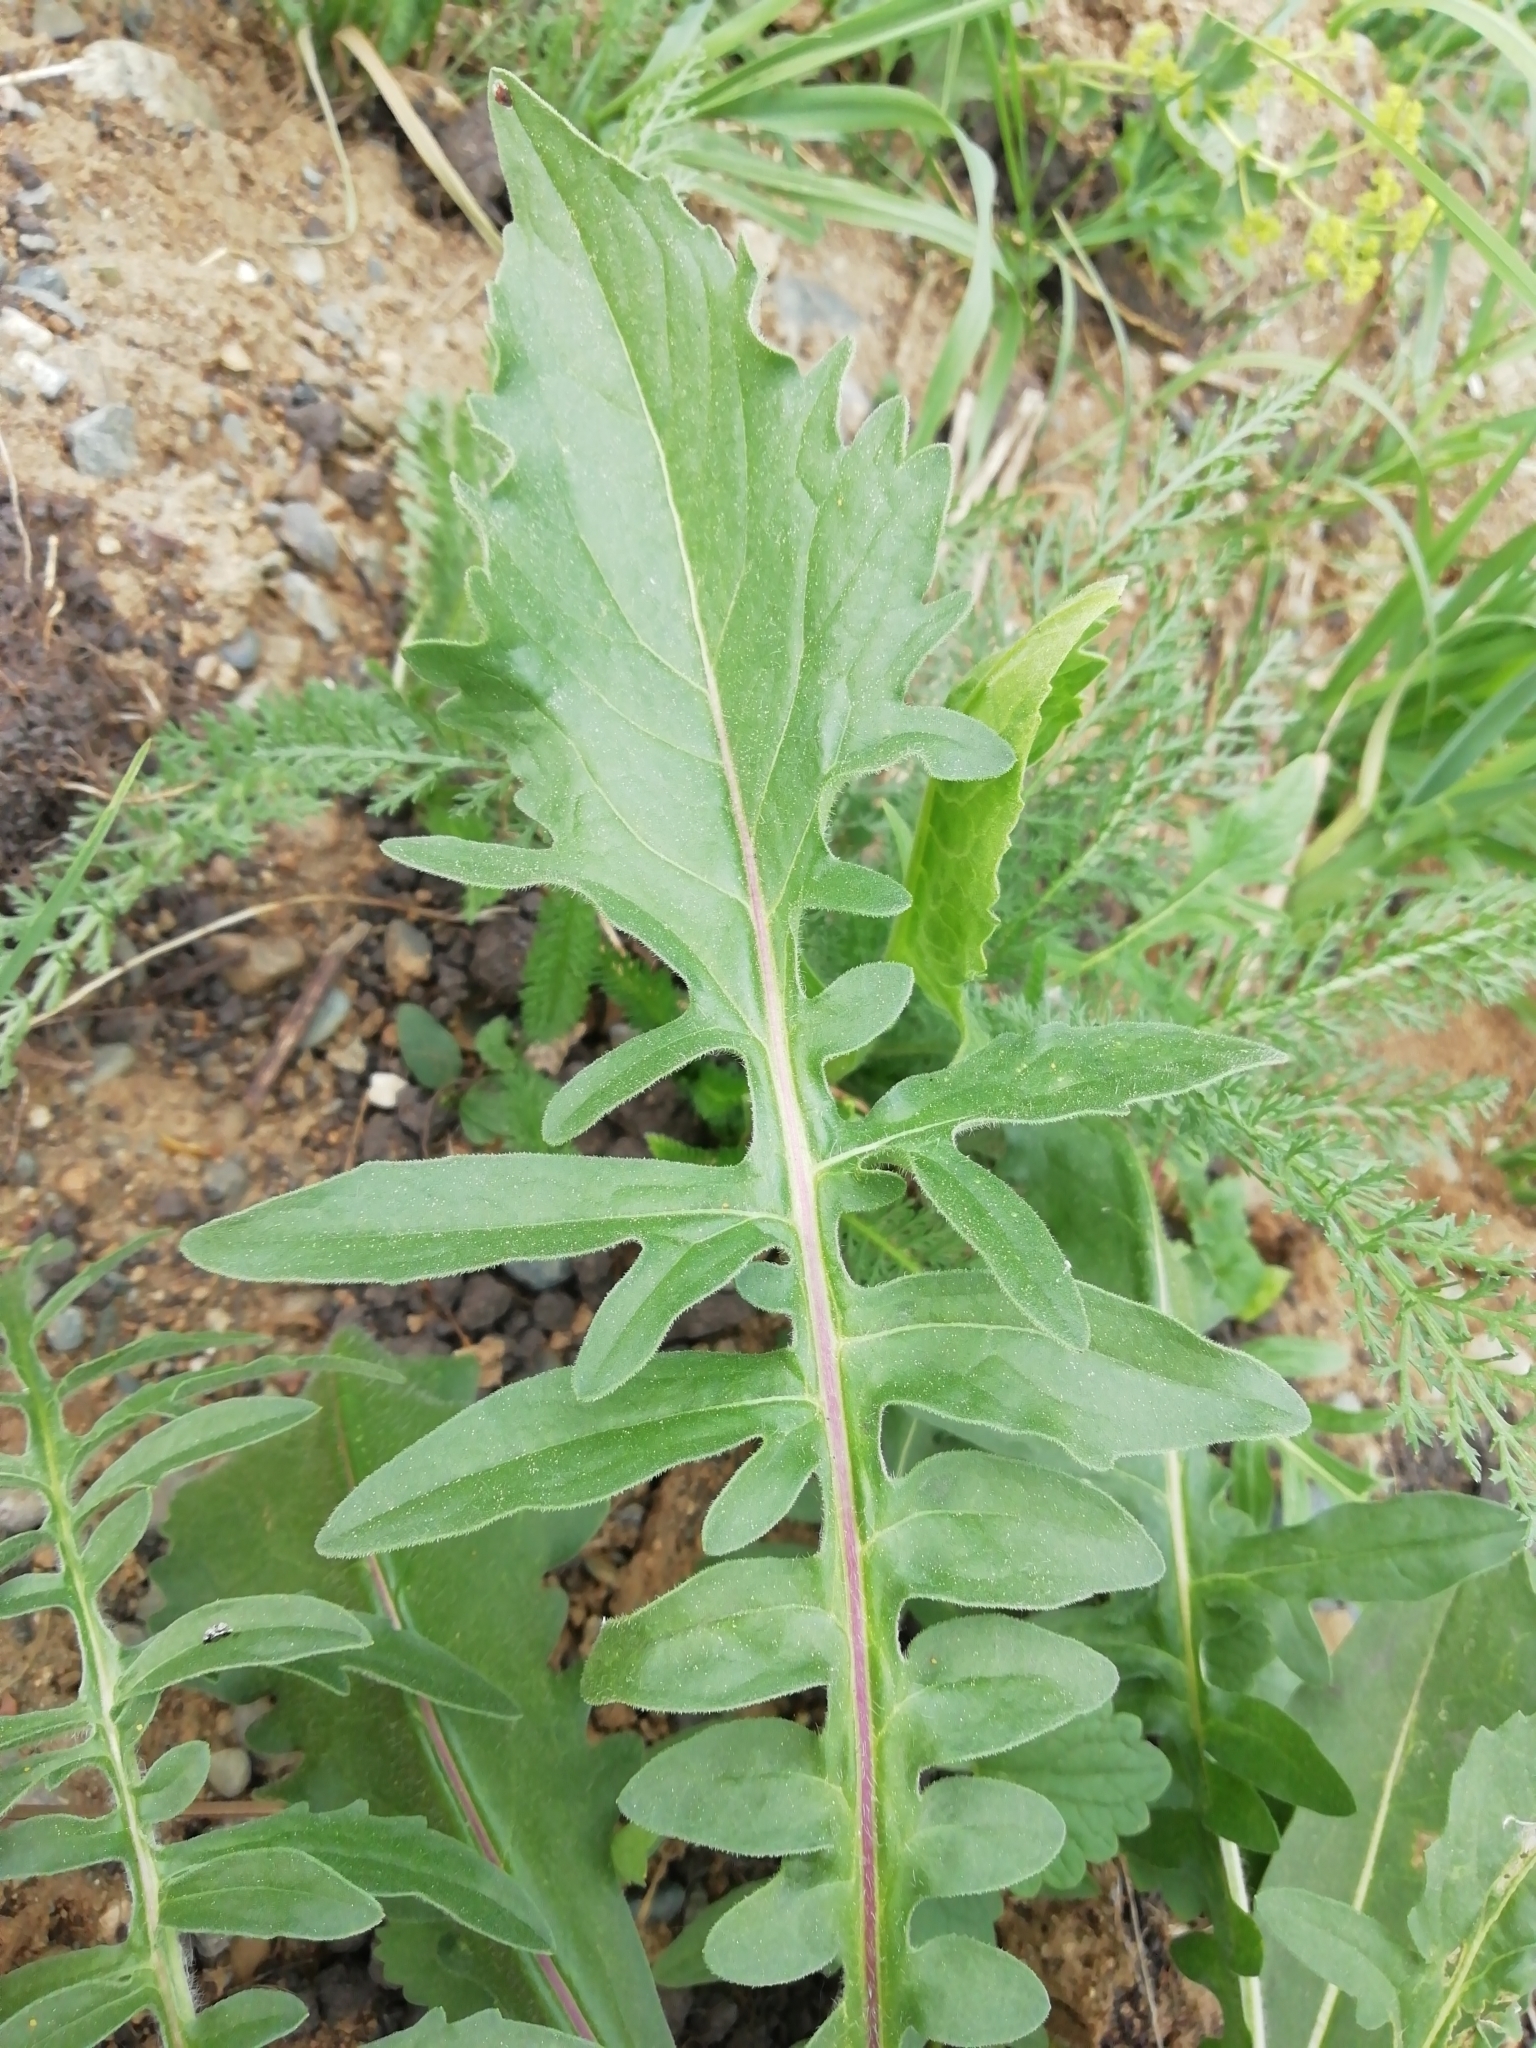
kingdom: Plantae
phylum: Tracheophyta
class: Magnoliopsida
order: Asterales
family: Asteraceae
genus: Centaurea
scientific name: Centaurea scabiosa
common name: Greater knapweed
